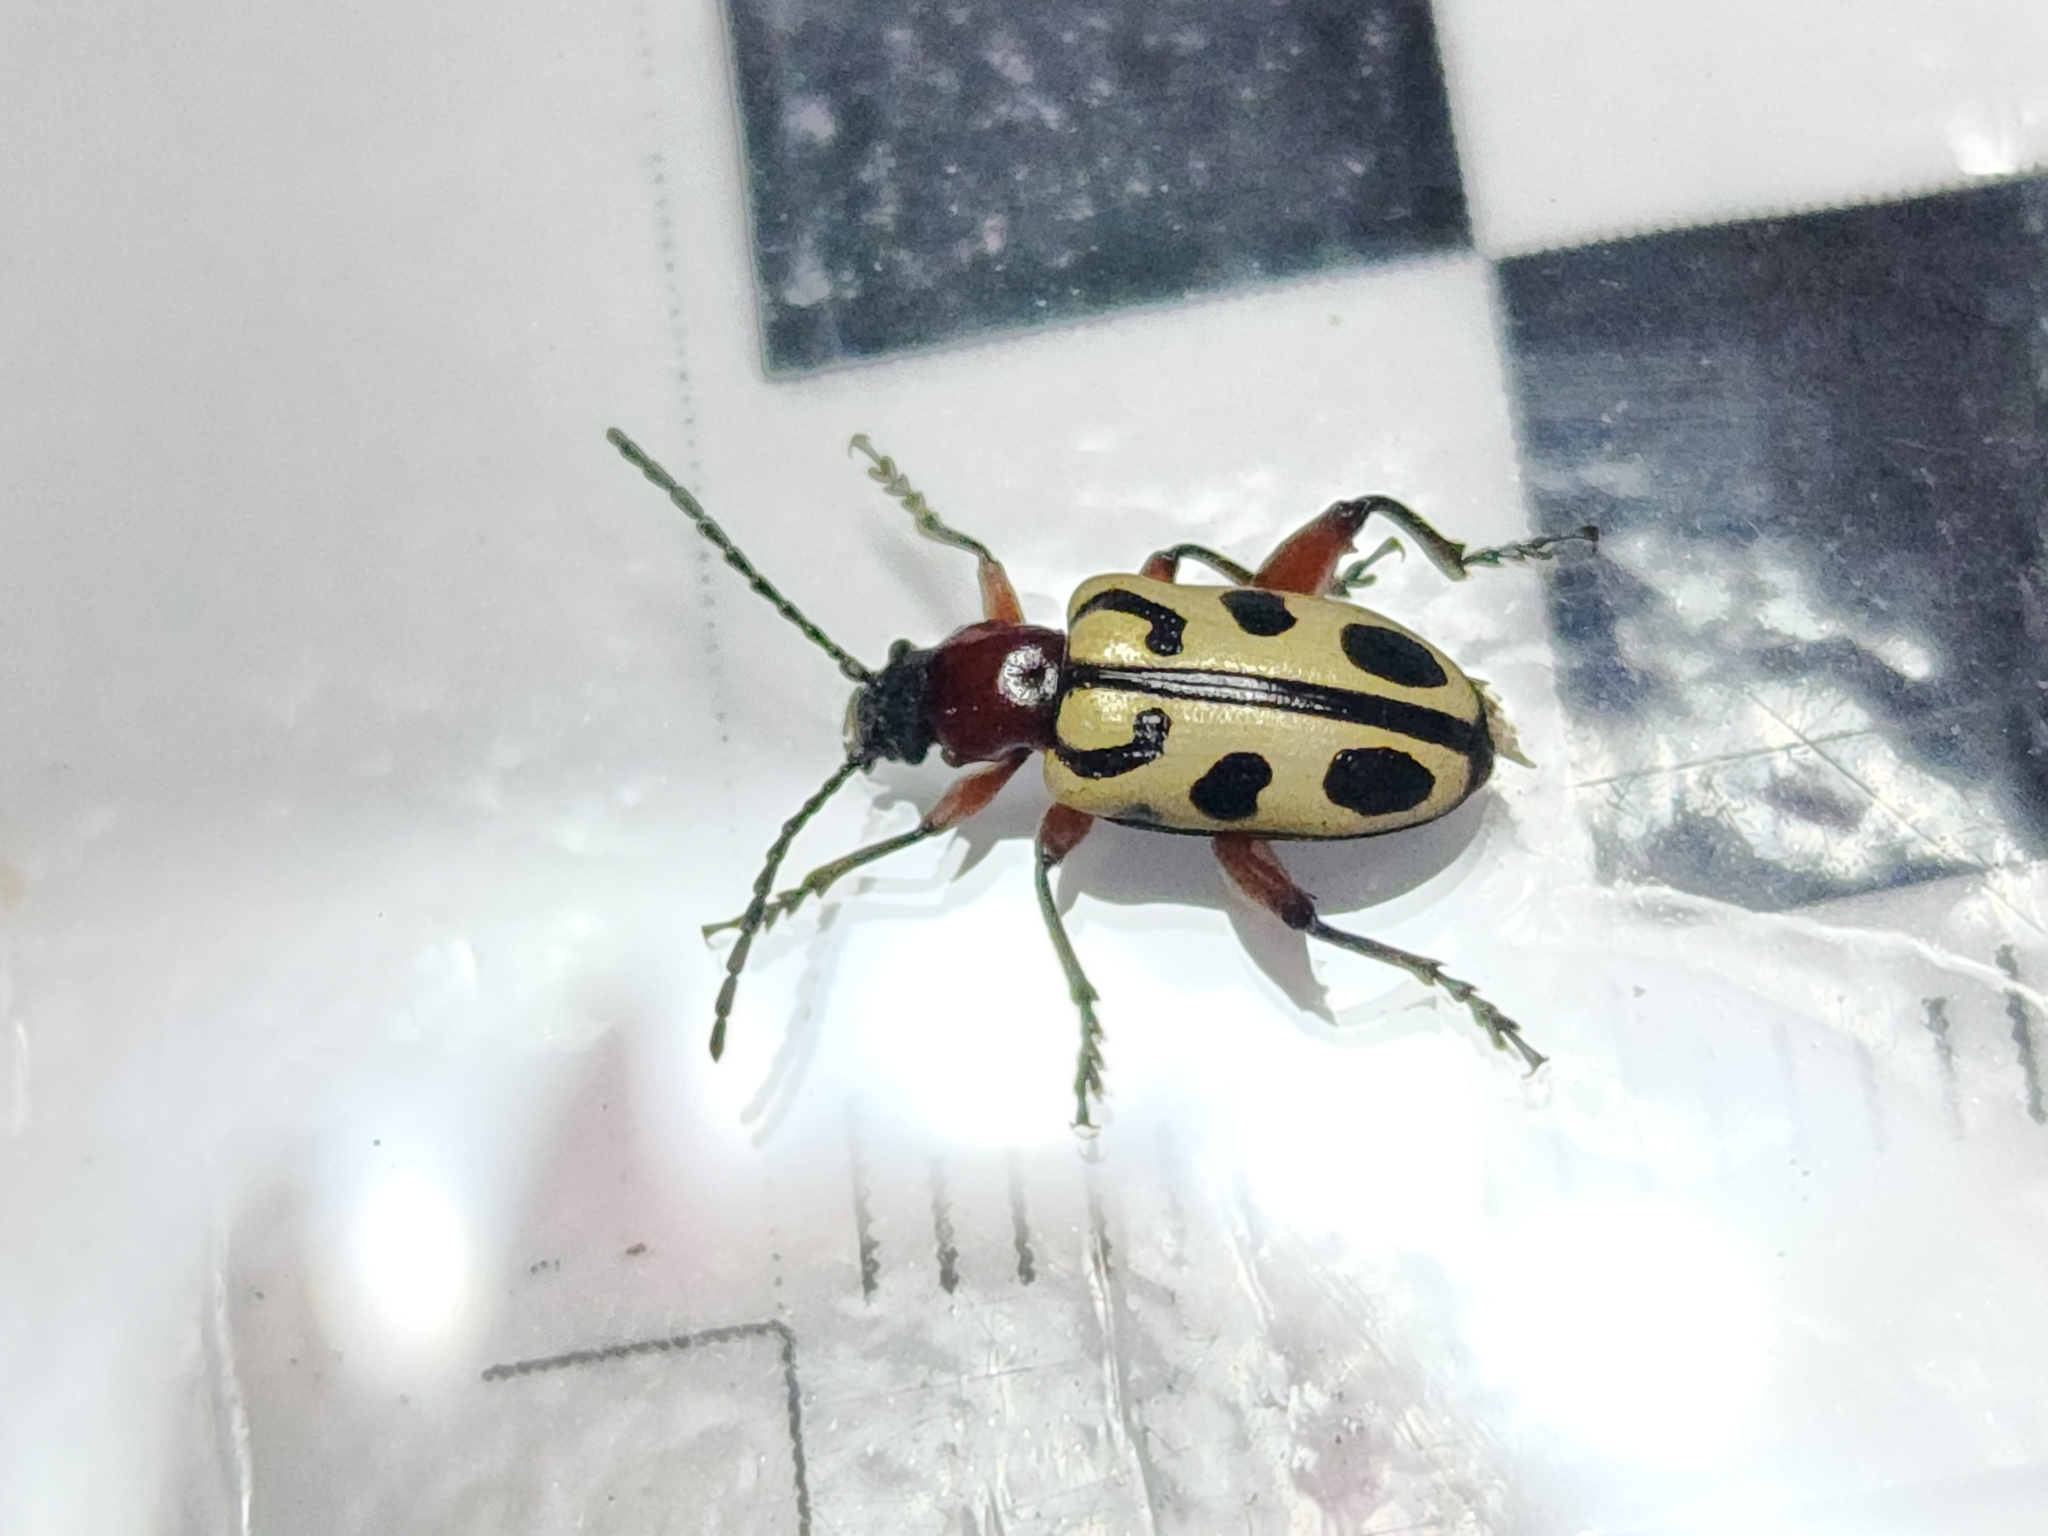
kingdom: Animalia
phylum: Arthropoda
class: Insecta
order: Coleoptera
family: Chrysomelidae
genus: Atalasis
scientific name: Atalasis
